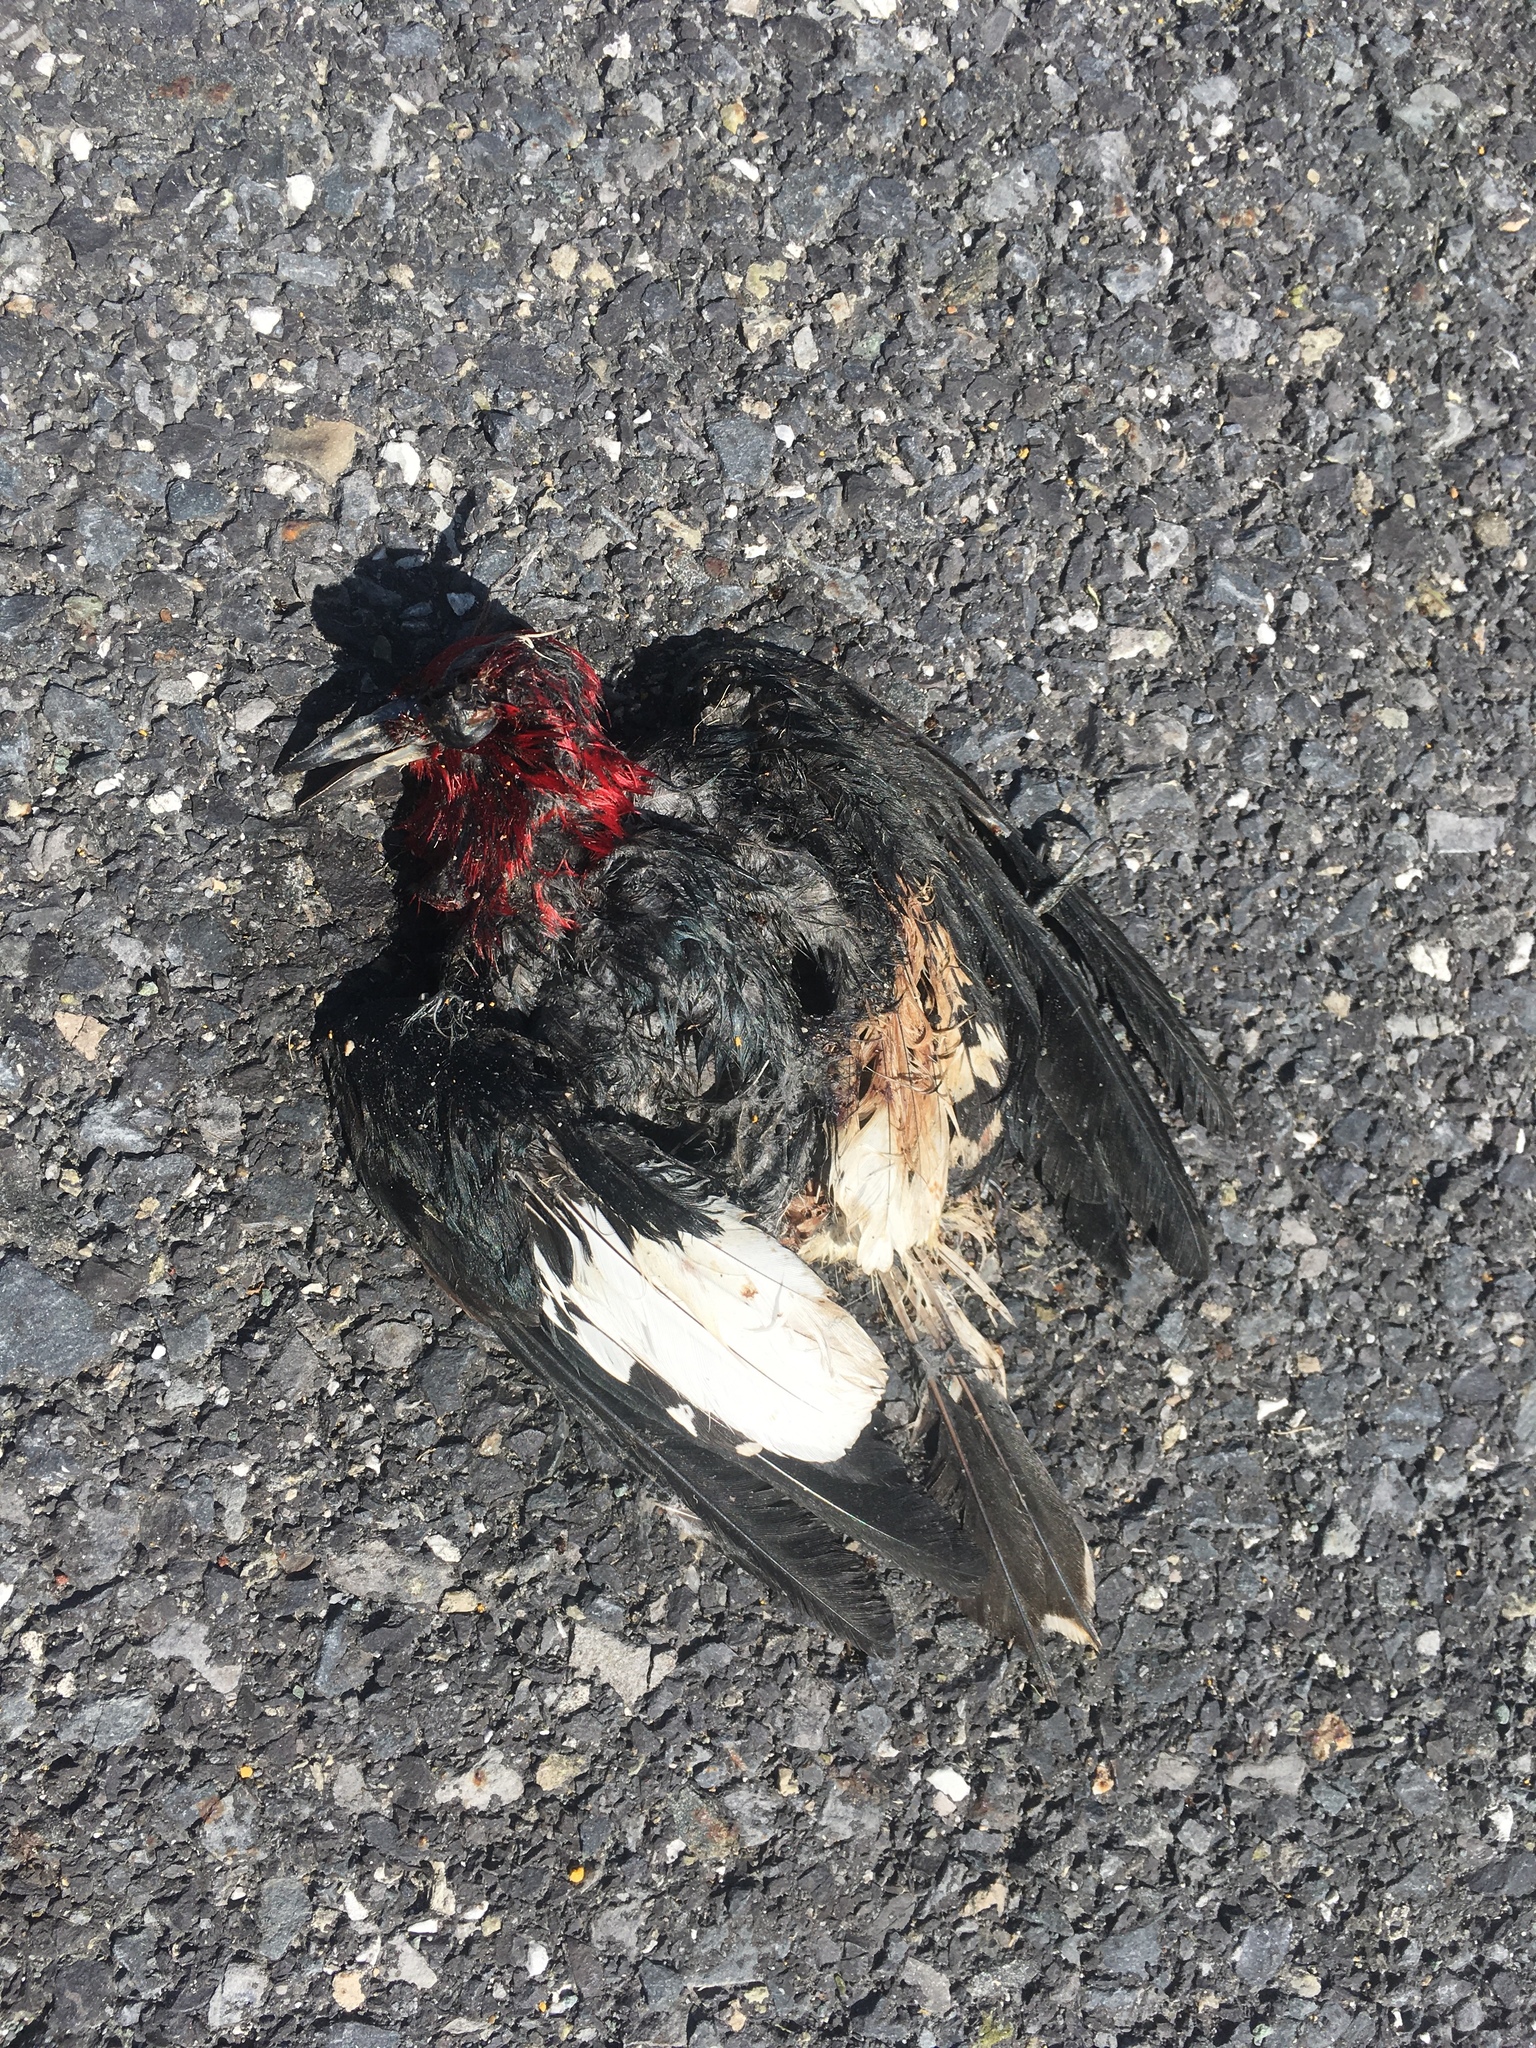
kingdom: Animalia
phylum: Chordata
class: Aves
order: Piciformes
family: Picidae
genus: Melanerpes
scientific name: Melanerpes erythrocephalus
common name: Red-headed woodpecker
